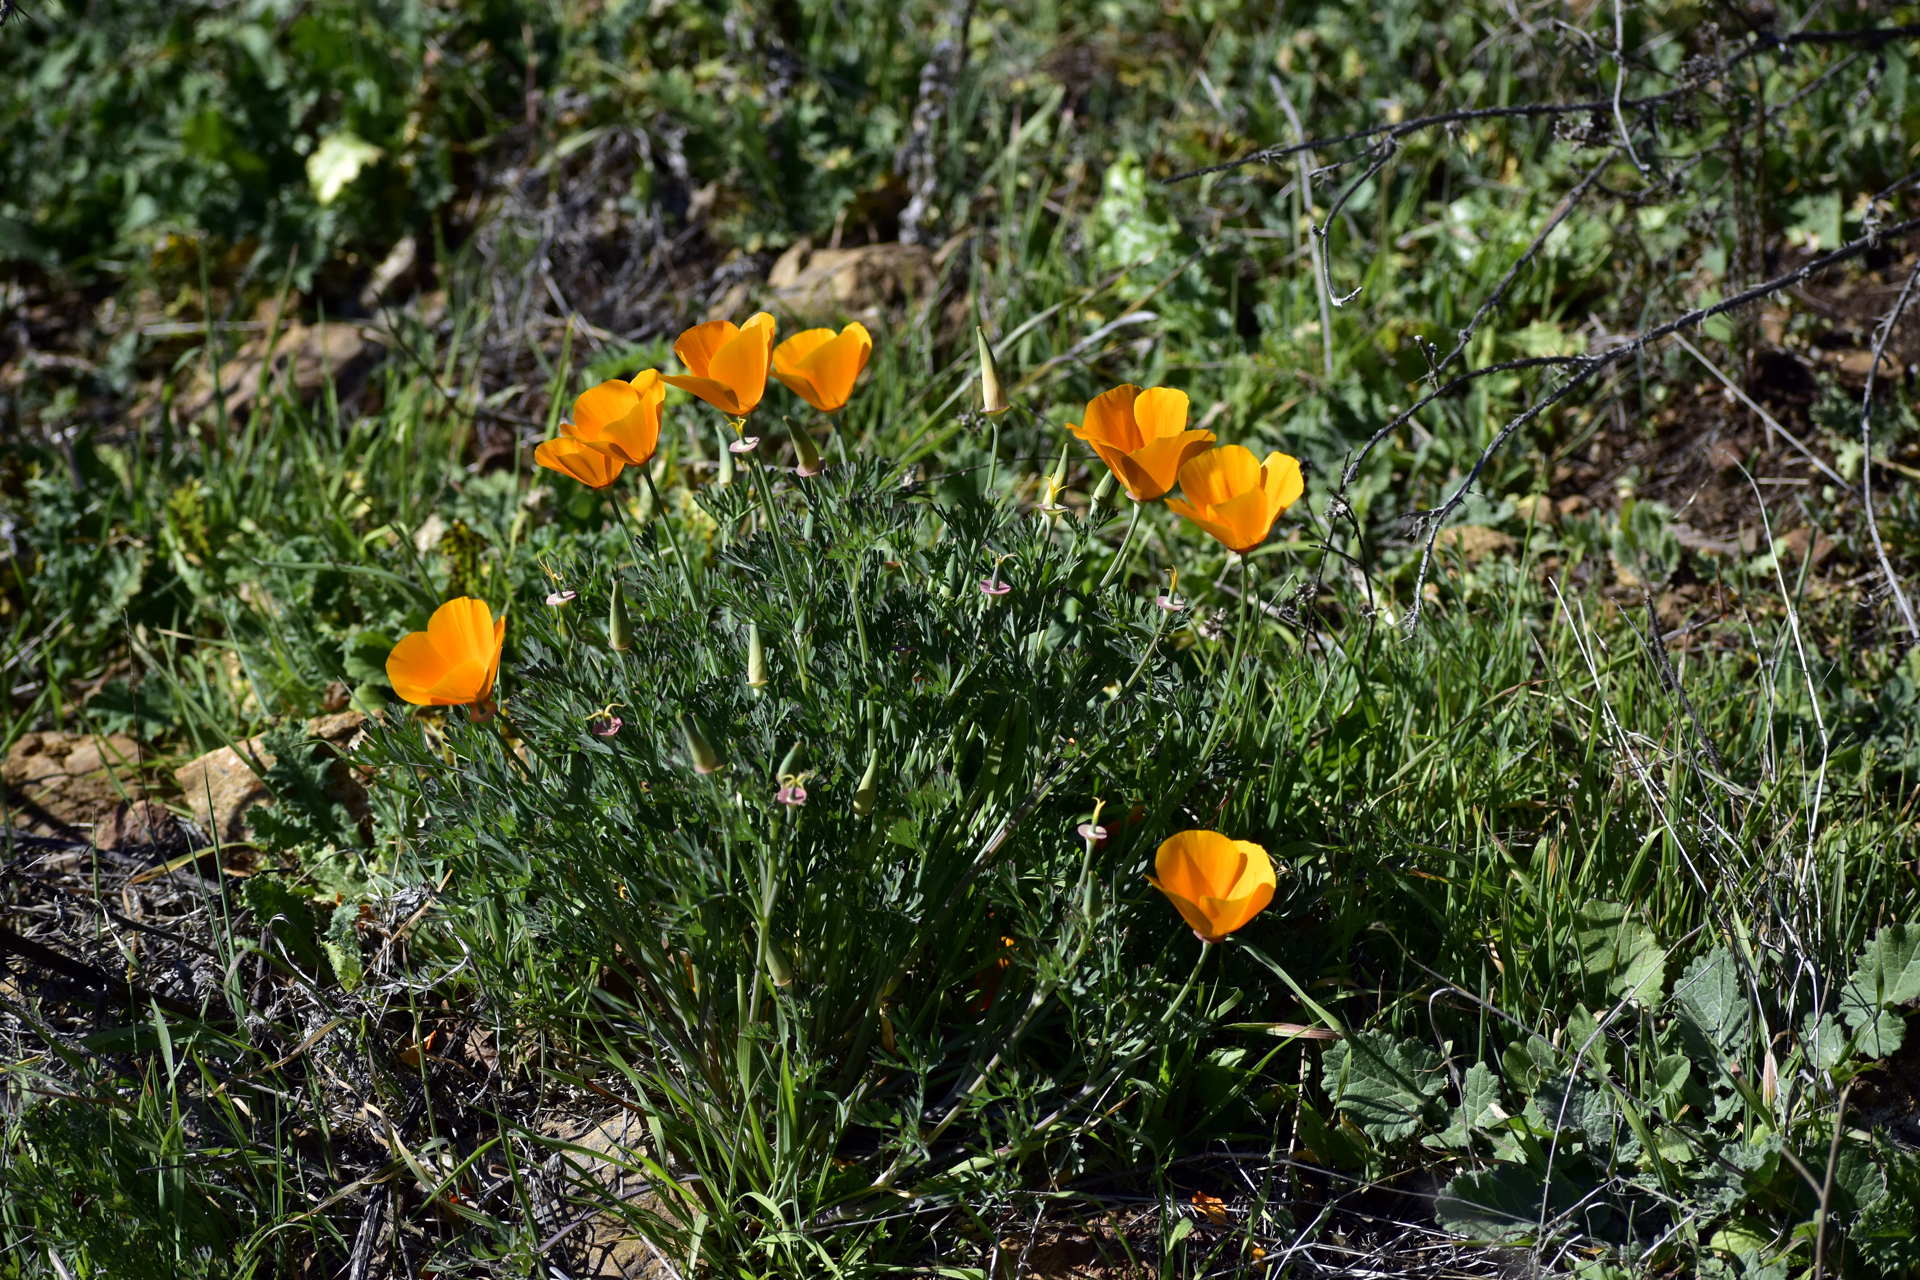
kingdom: Plantae
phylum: Tracheophyta
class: Magnoliopsida
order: Ranunculales
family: Papaveraceae
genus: Eschscholzia
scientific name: Eschscholzia californica
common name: California poppy
